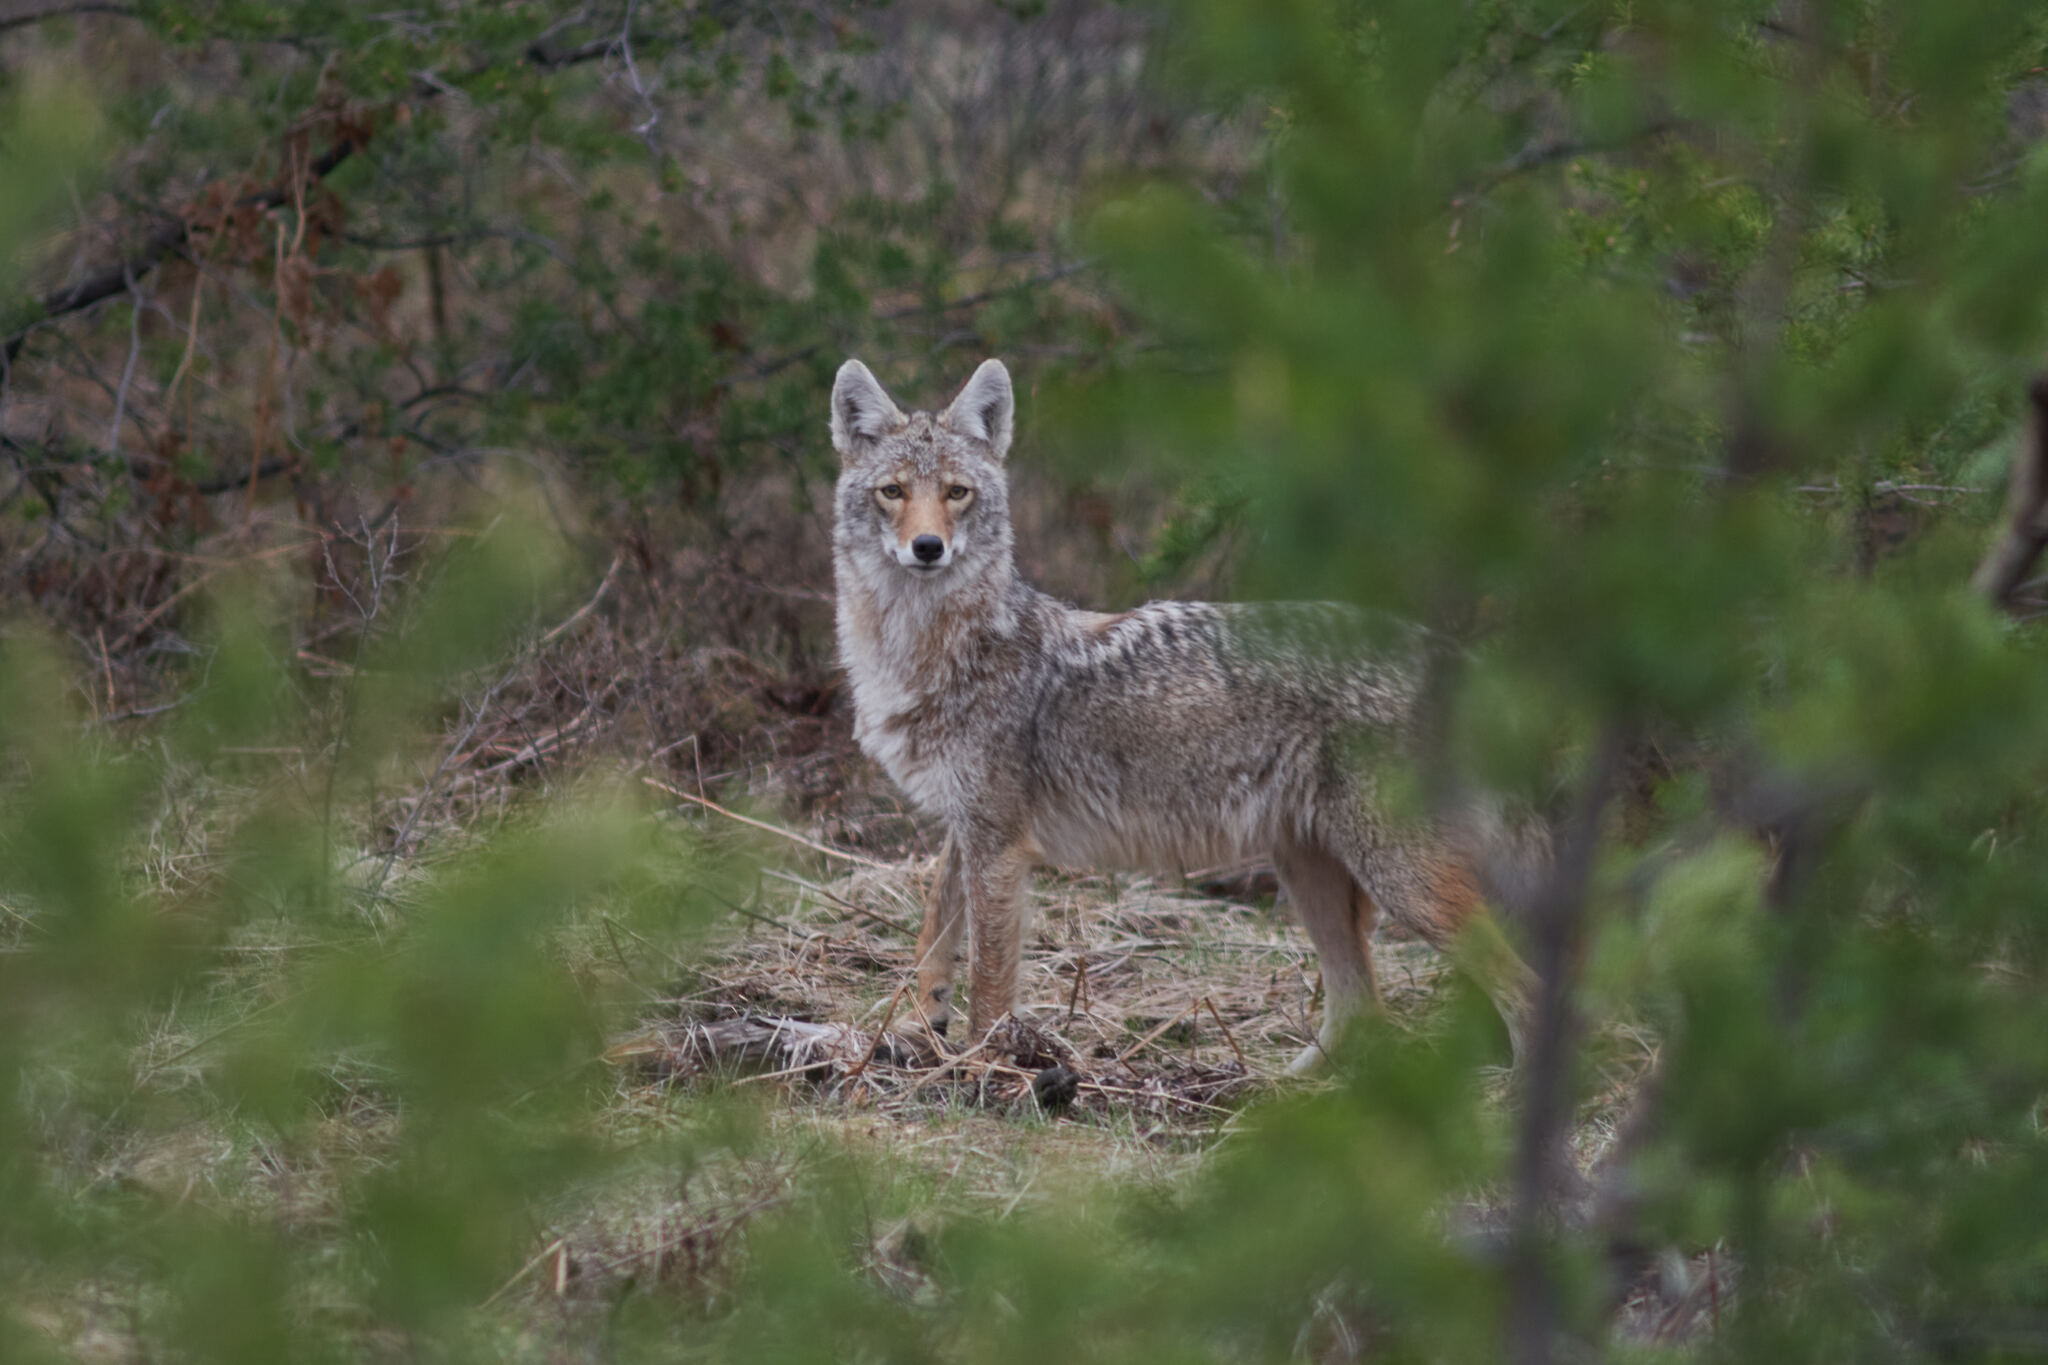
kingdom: Animalia
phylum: Chordata
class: Mammalia
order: Carnivora
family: Canidae
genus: Canis
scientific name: Canis latrans
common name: Coyote
